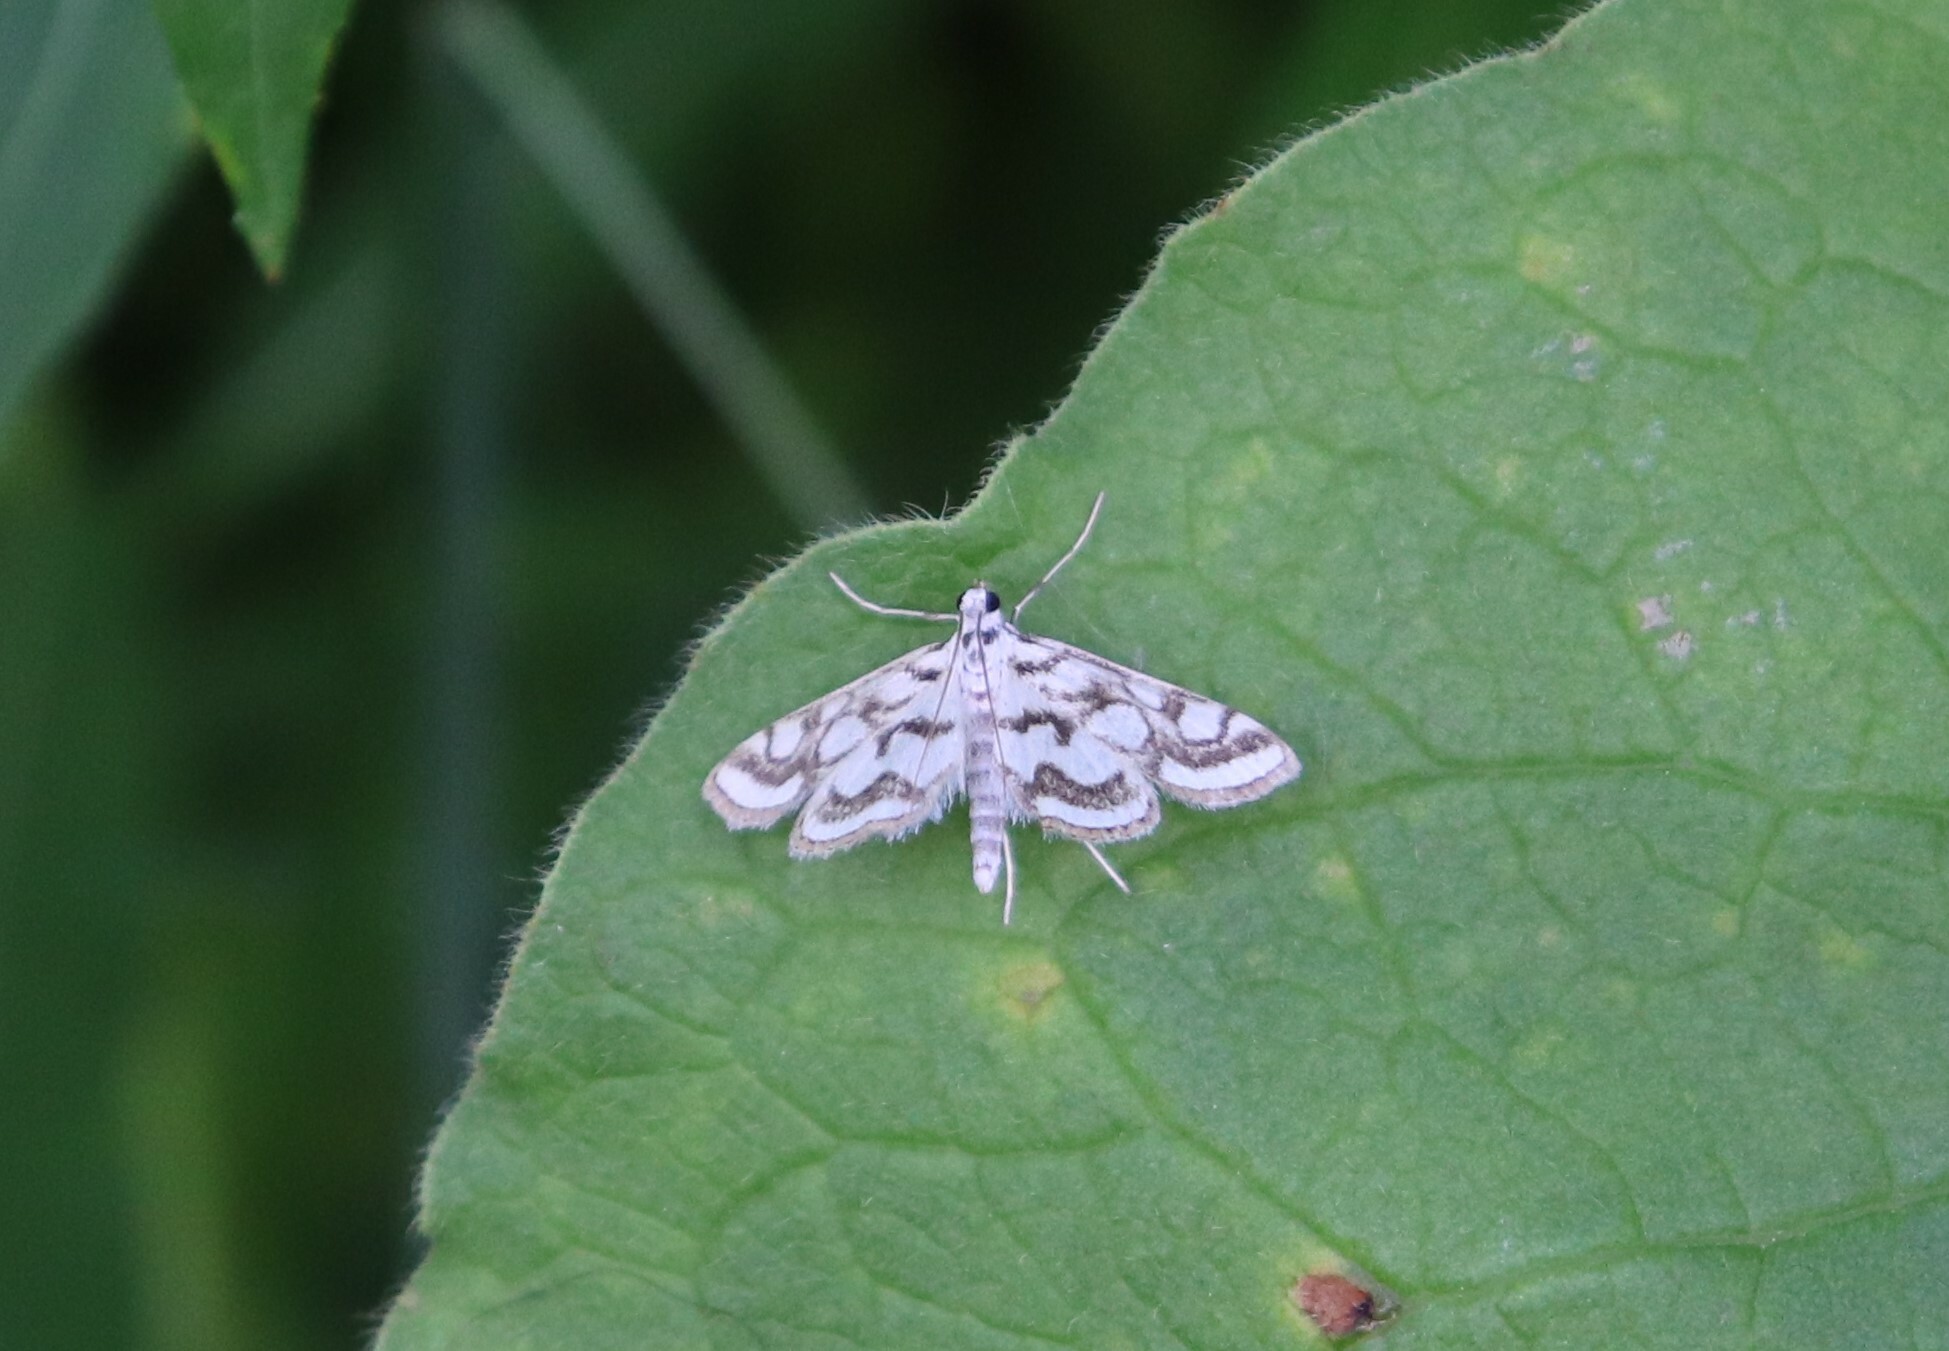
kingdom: Animalia
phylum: Arthropoda
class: Insecta
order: Lepidoptera
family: Crambidae
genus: Nymphula
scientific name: Nymphula nitidulata
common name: Beautiful china mark
